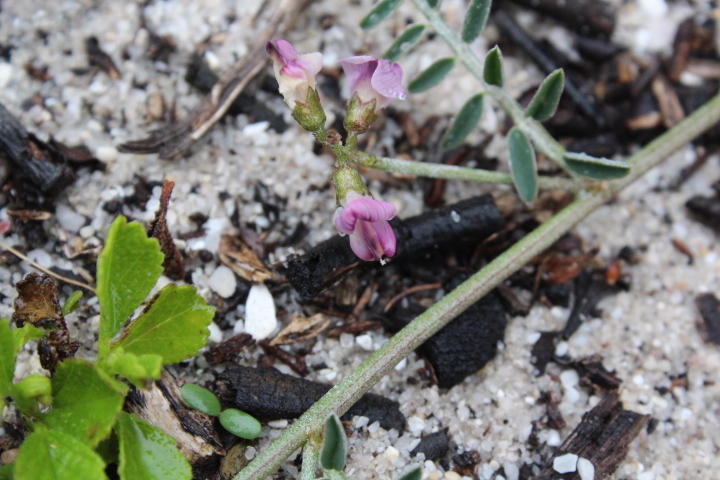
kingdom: Plantae
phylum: Tracheophyta
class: Magnoliopsida
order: Fabales
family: Fabaceae
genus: Lessertia
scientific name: Lessertia villosa
